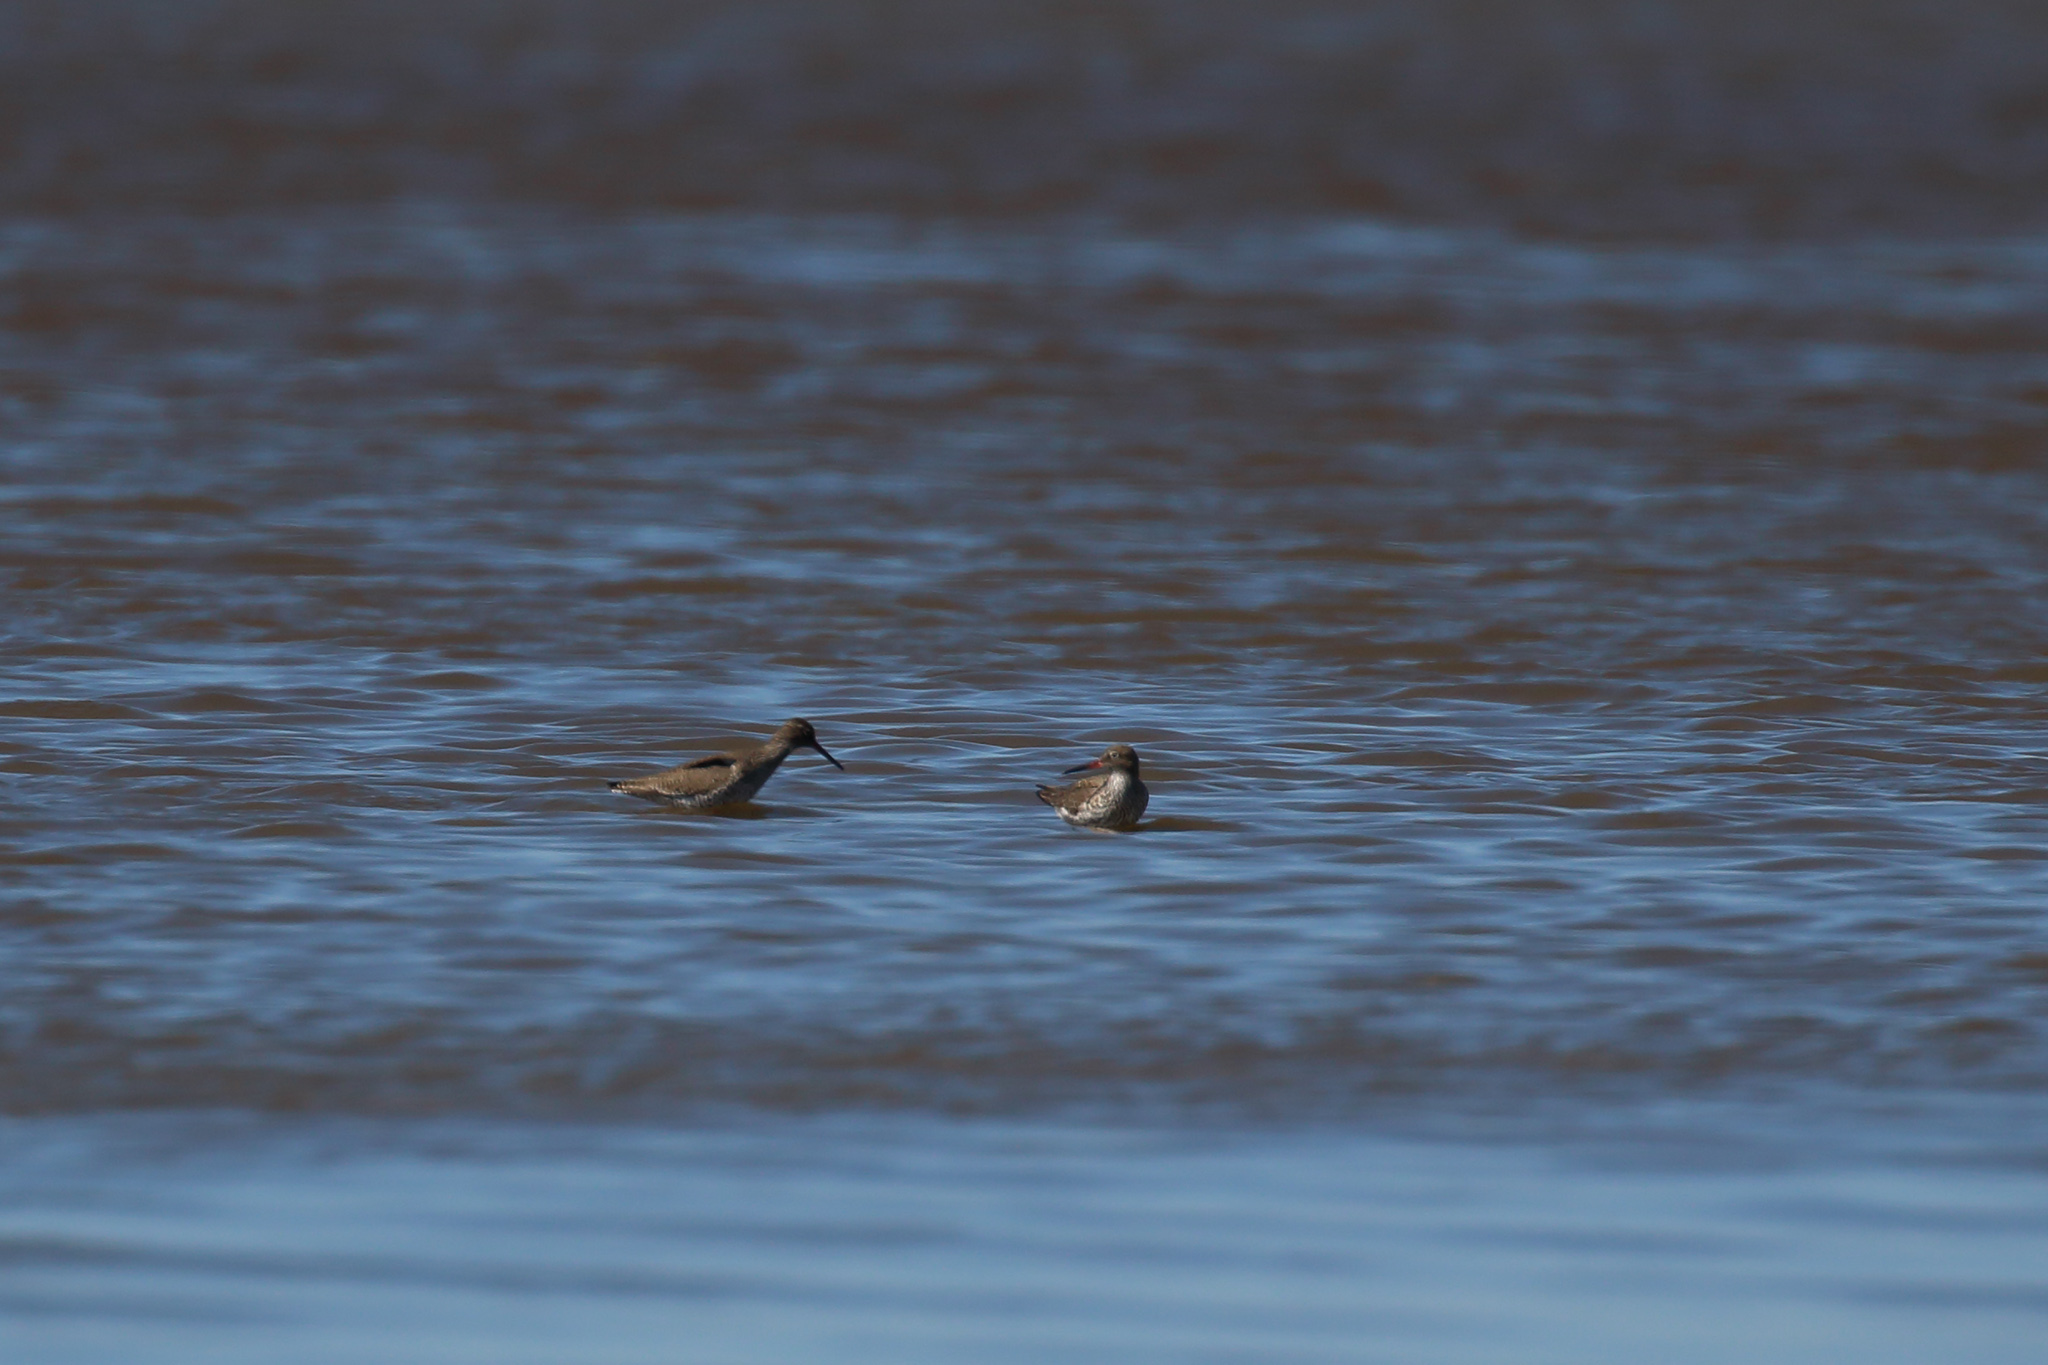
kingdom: Animalia
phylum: Chordata
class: Aves
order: Charadriiformes
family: Scolopacidae
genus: Tringa
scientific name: Tringa totanus
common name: Common redshank
